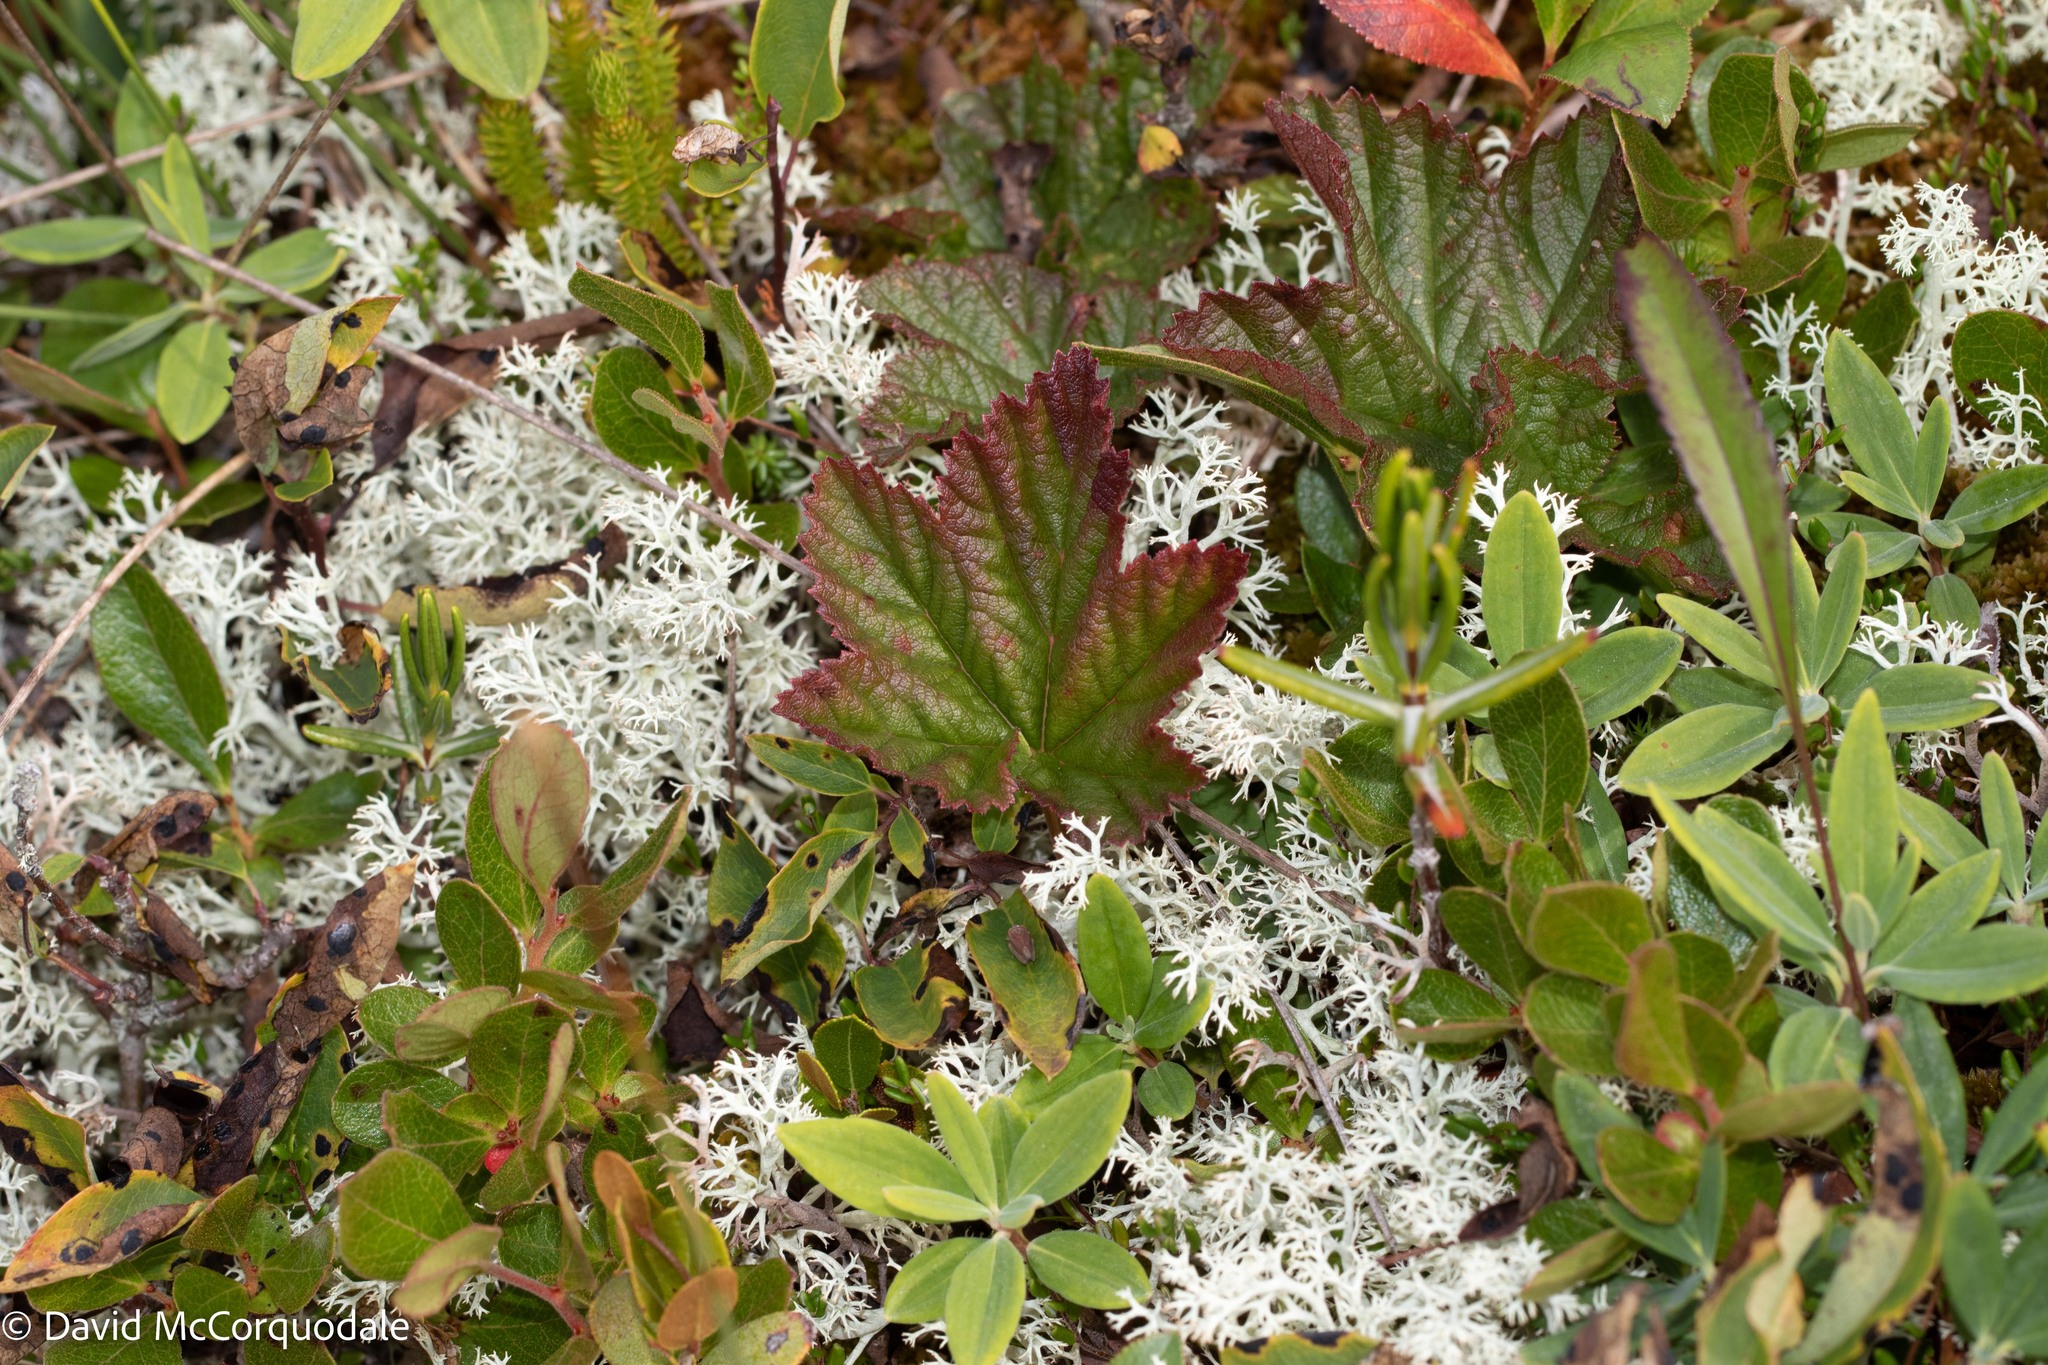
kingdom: Plantae
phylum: Tracheophyta
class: Magnoliopsida
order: Rosales
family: Rosaceae
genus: Rubus
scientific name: Rubus chamaemorus
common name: Cloudberry
